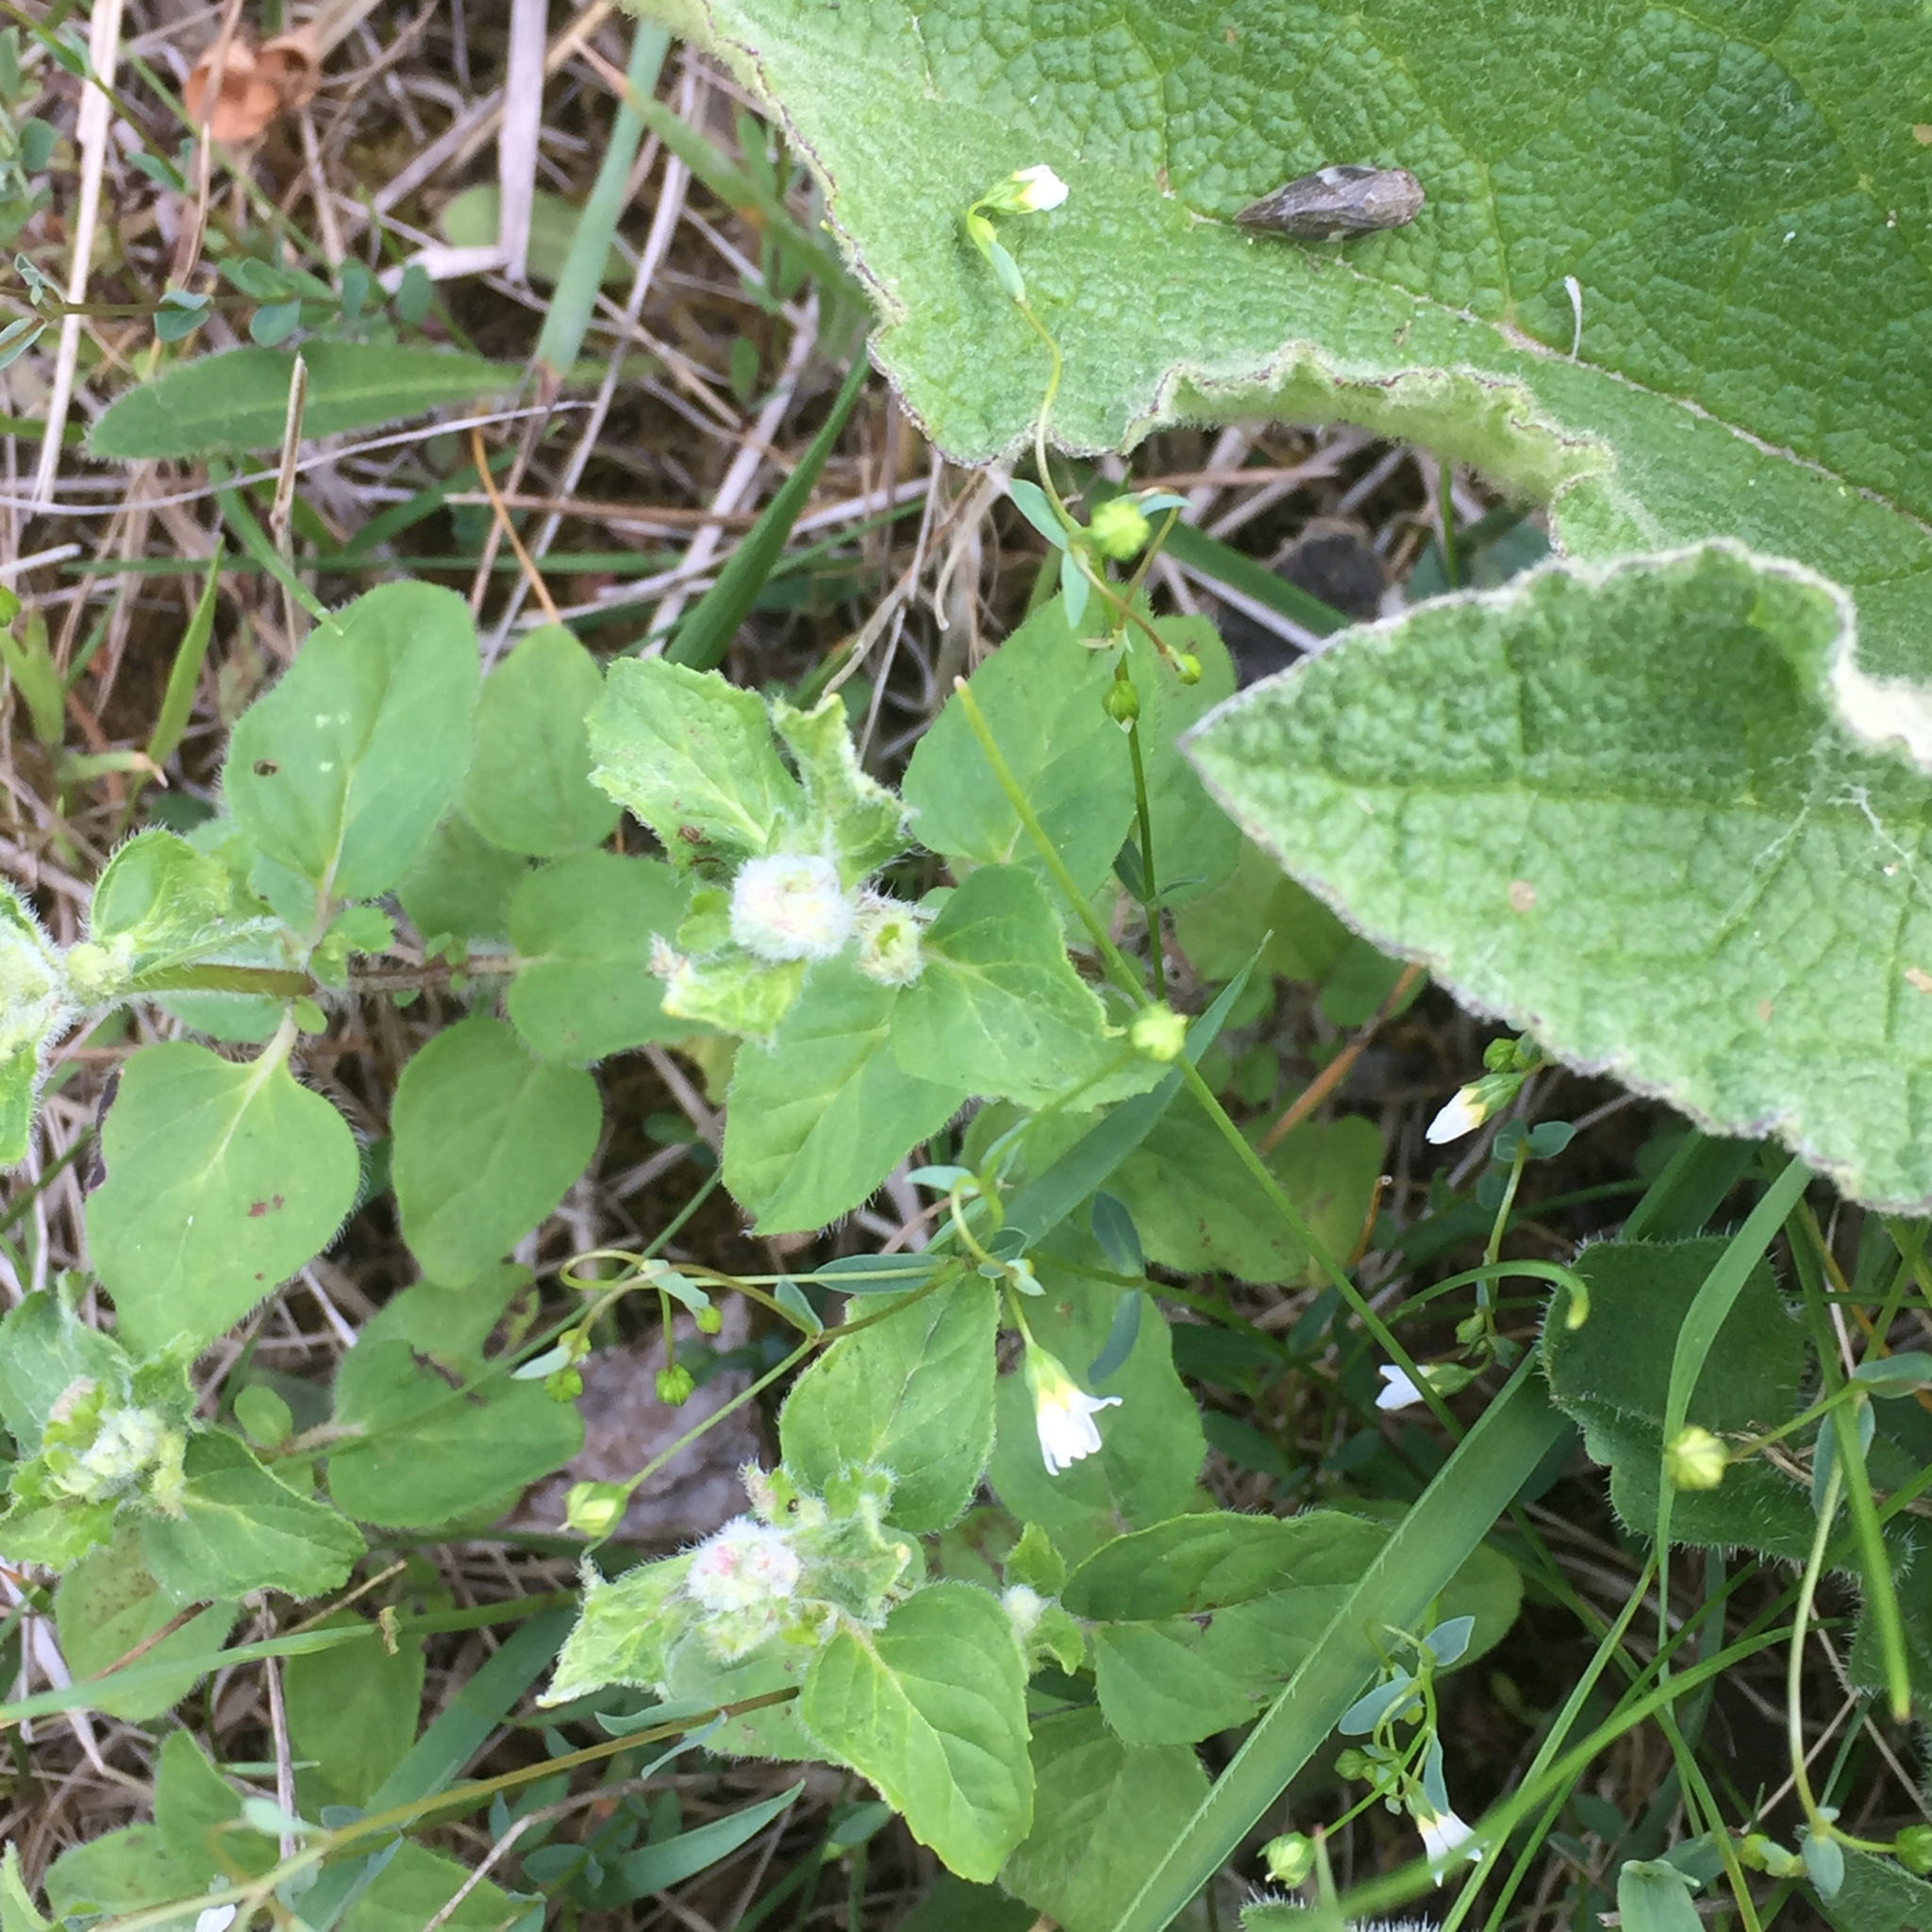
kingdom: Plantae
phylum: Tracheophyta
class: Magnoliopsida
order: Malpighiales
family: Linaceae
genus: Linum
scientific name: Linum catharticum
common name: Fairy flax
